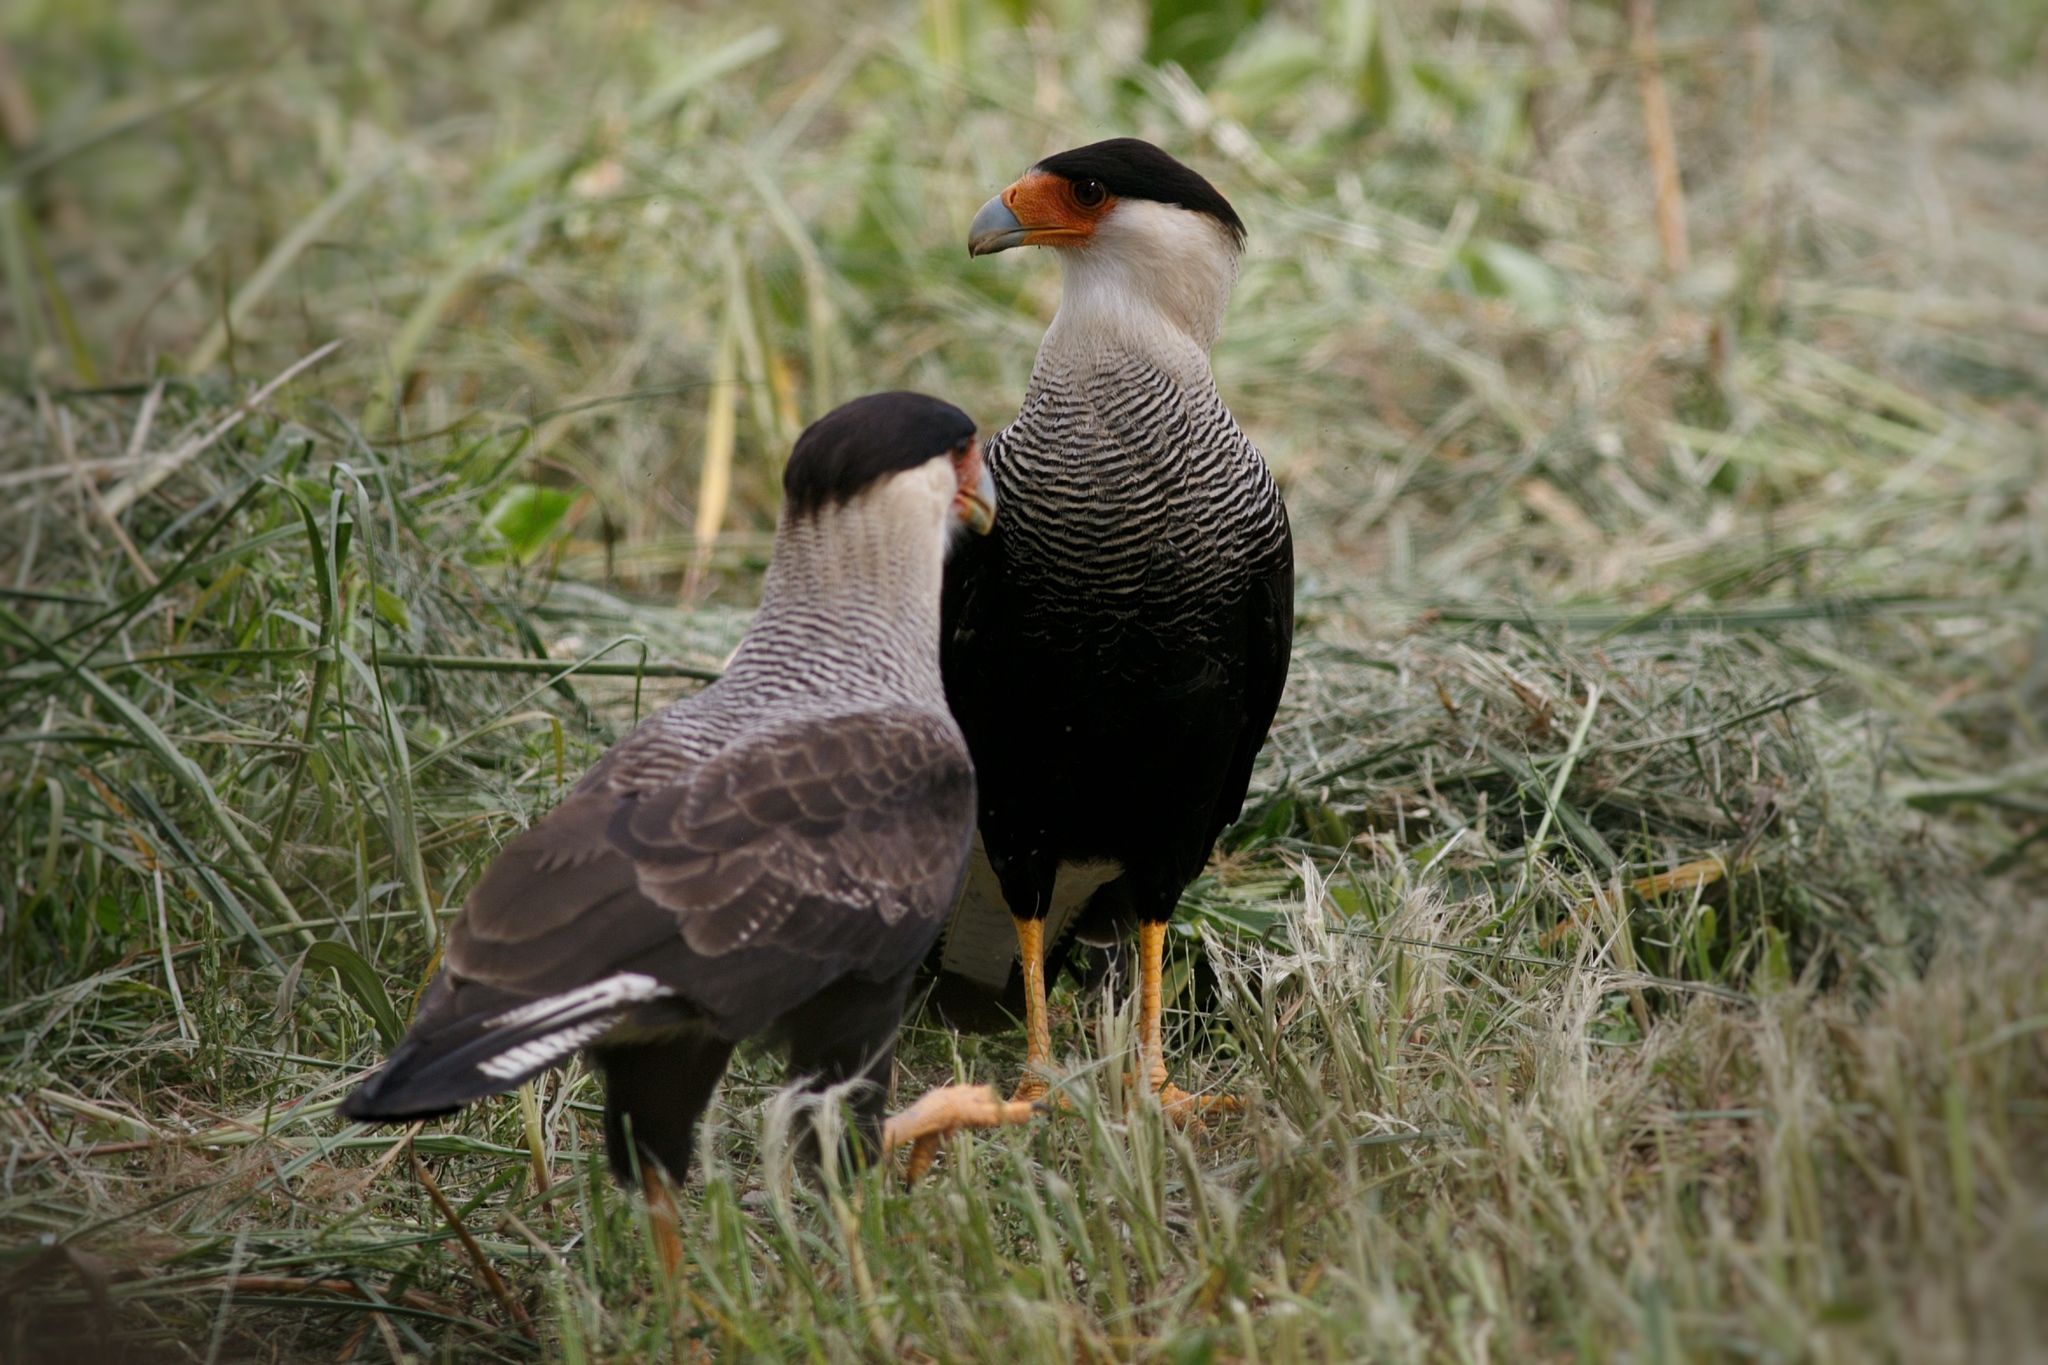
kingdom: Animalia
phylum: Chordata
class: Aves
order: Falconiformes
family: Falconidae
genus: Caracara
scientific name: Caracara plancus
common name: Southern caracara
